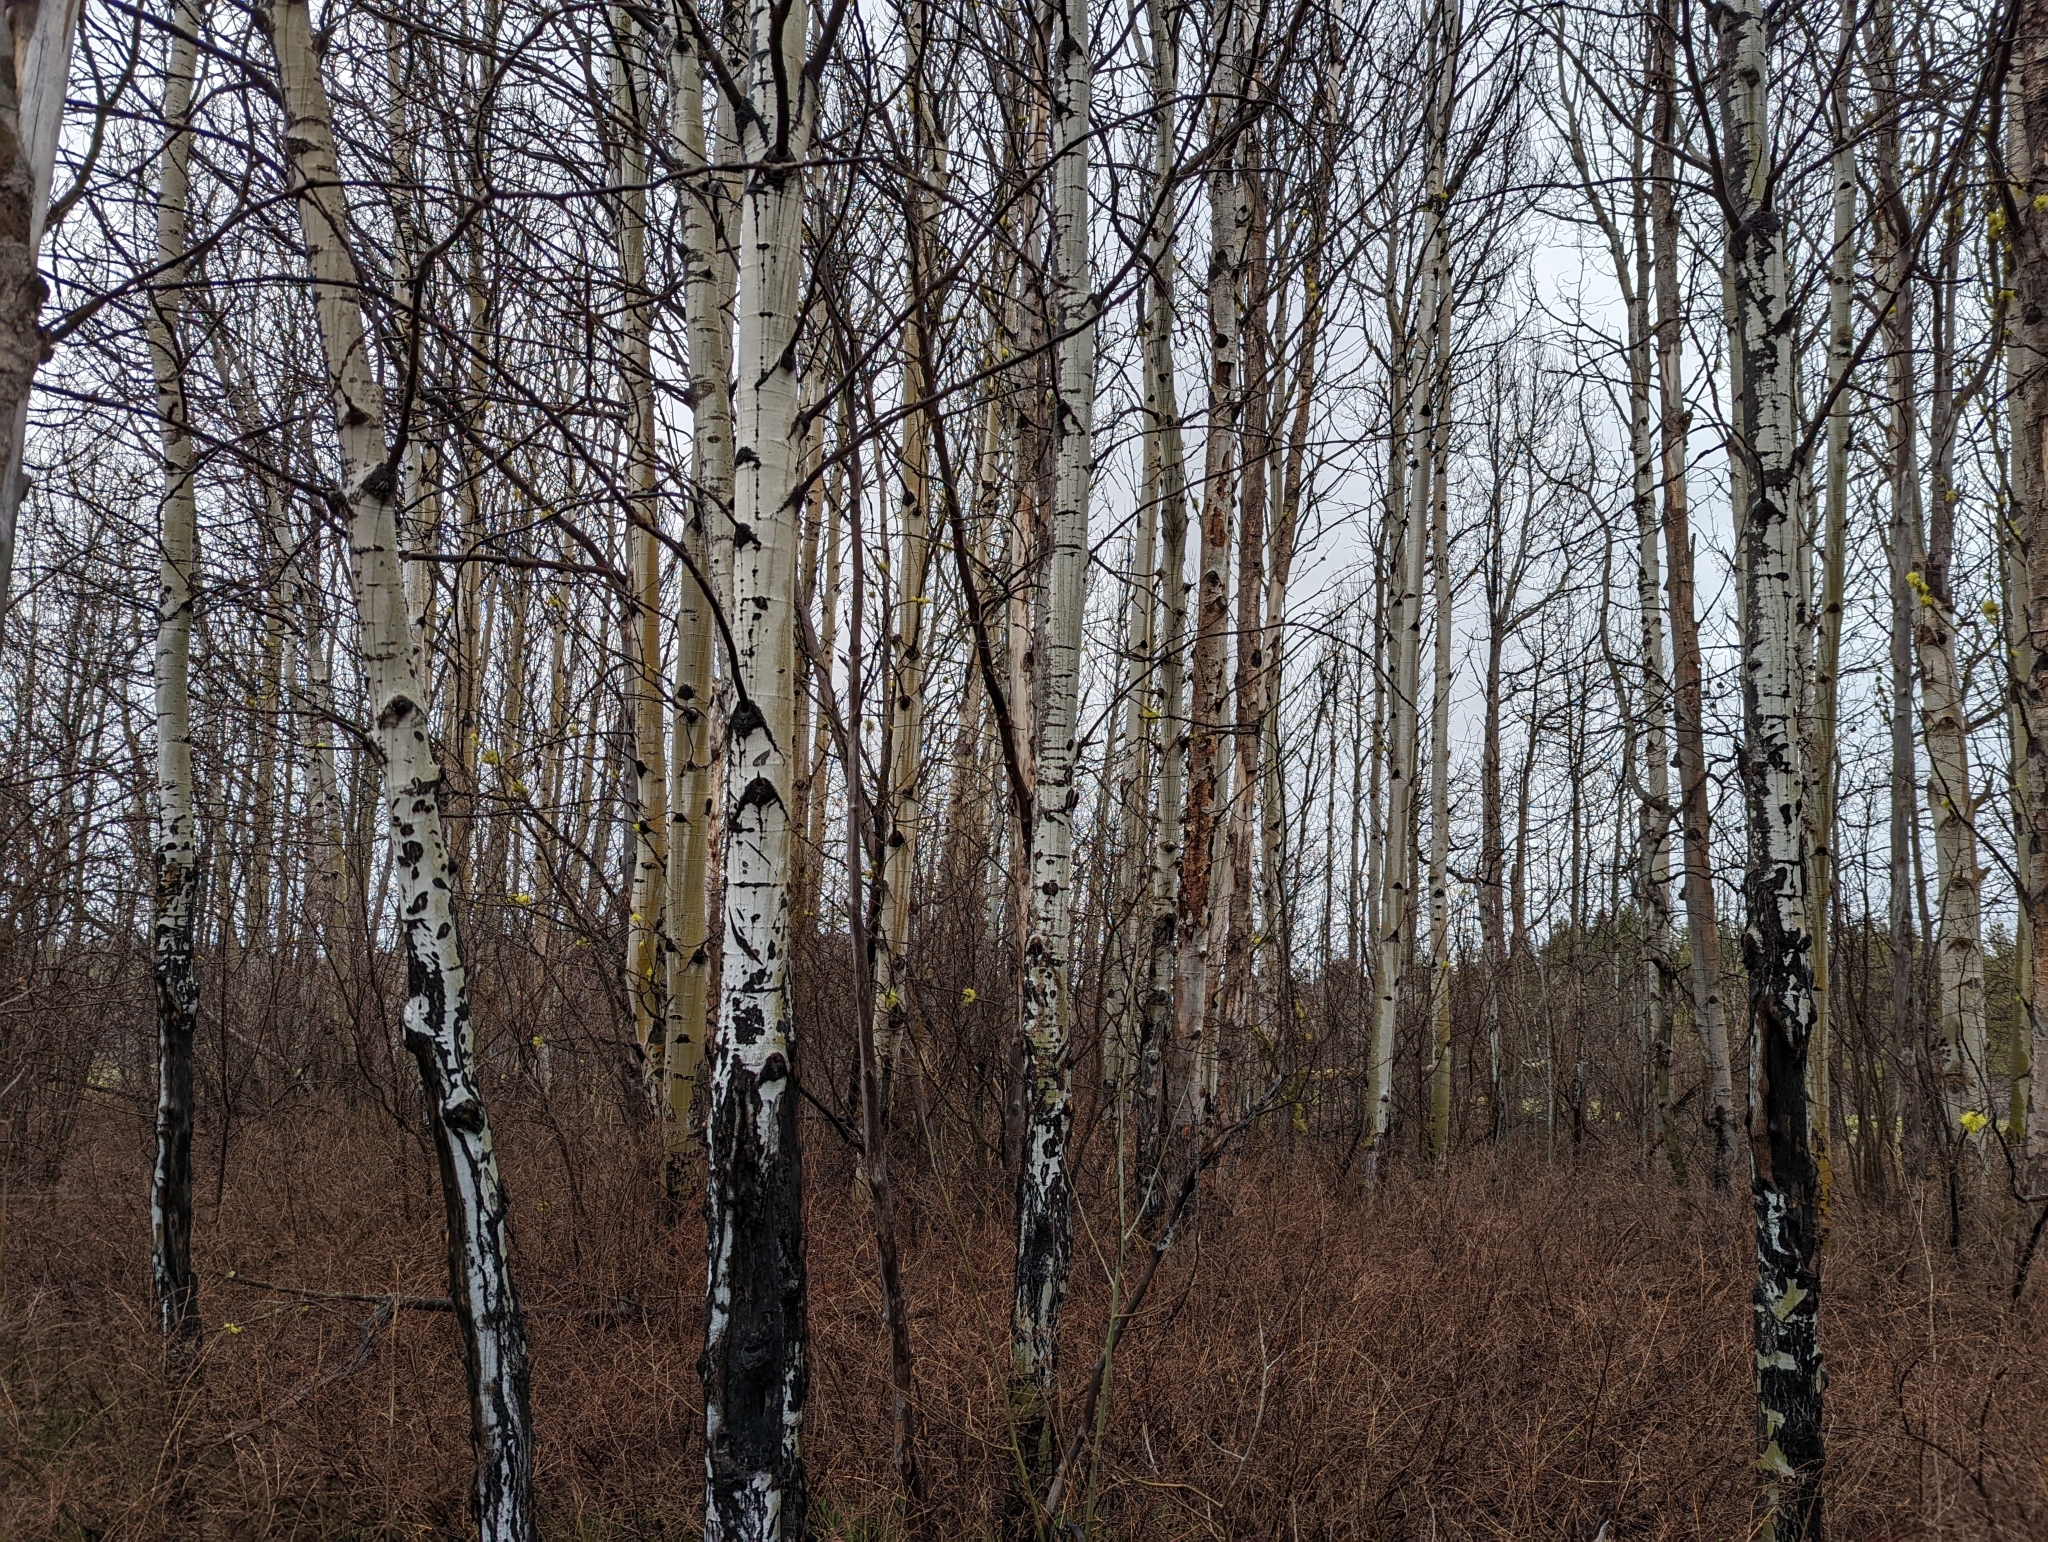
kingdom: Plantae
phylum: Tracheophyta
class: Magnoliopsida
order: Malpighiales
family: Salicaceae
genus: Populus
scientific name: Populus tremuloides
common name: Quaking aspen
